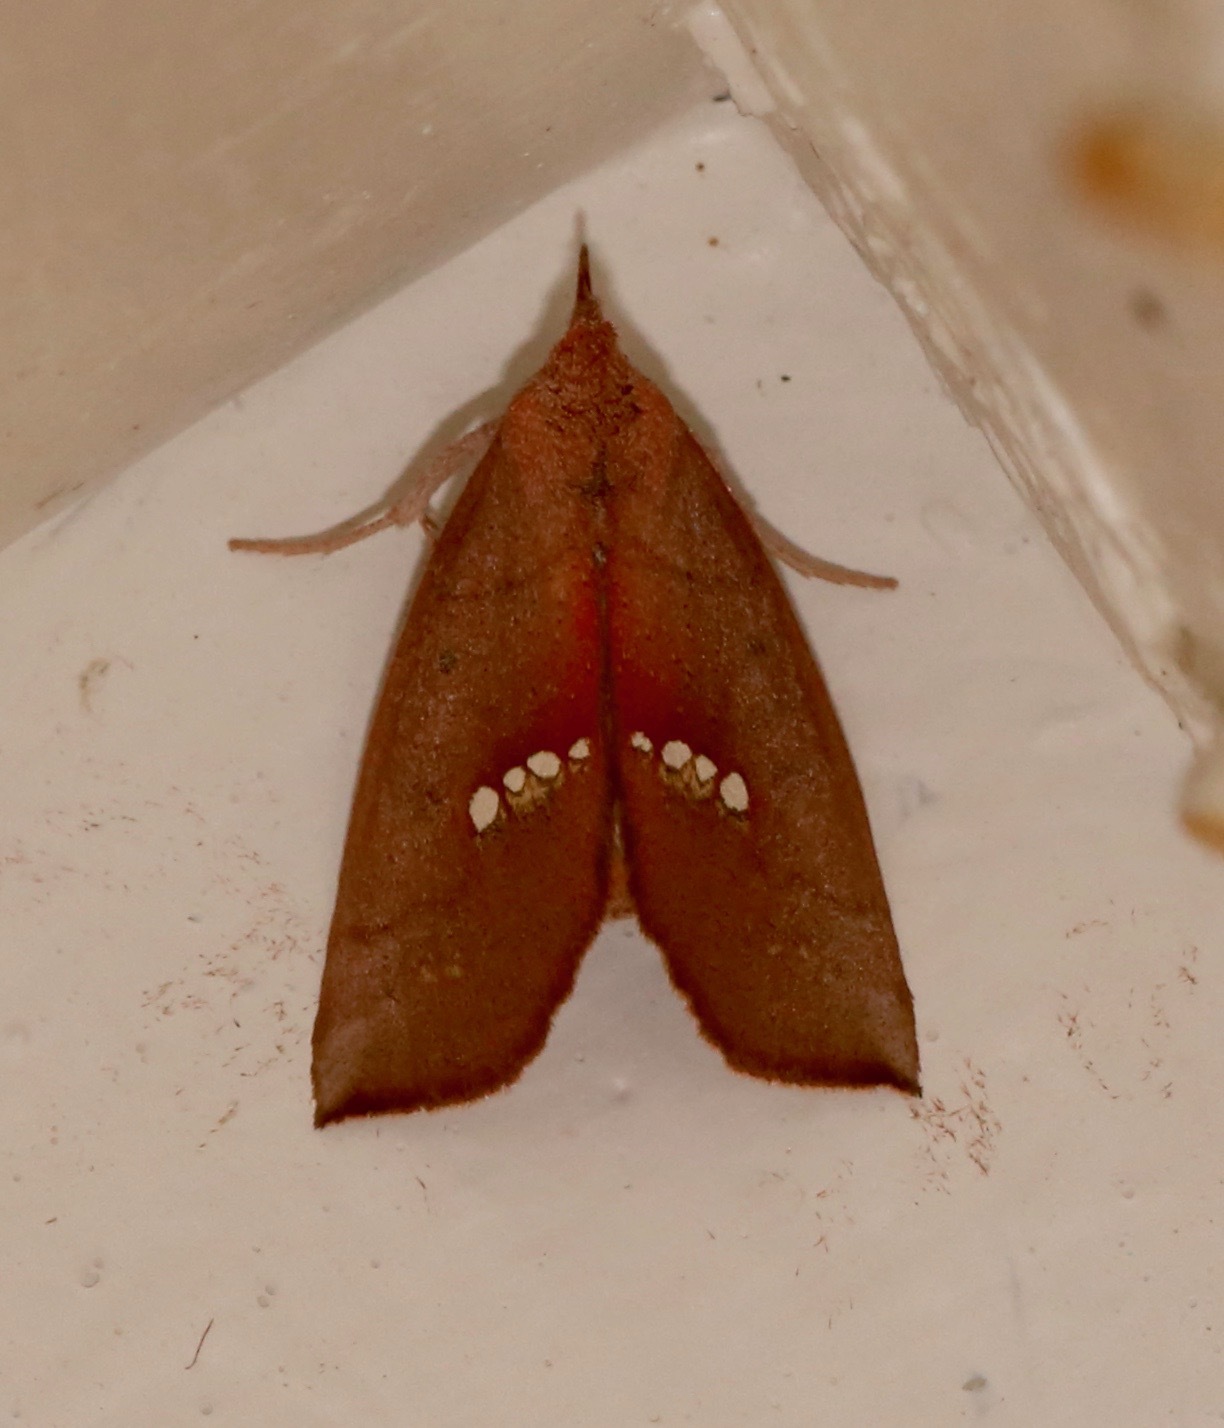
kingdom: Animalia
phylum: Arthropoda
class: Insecta
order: Lepidoptera
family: Erebidae
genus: Hypsoropha
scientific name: Hypsoropha monilis
